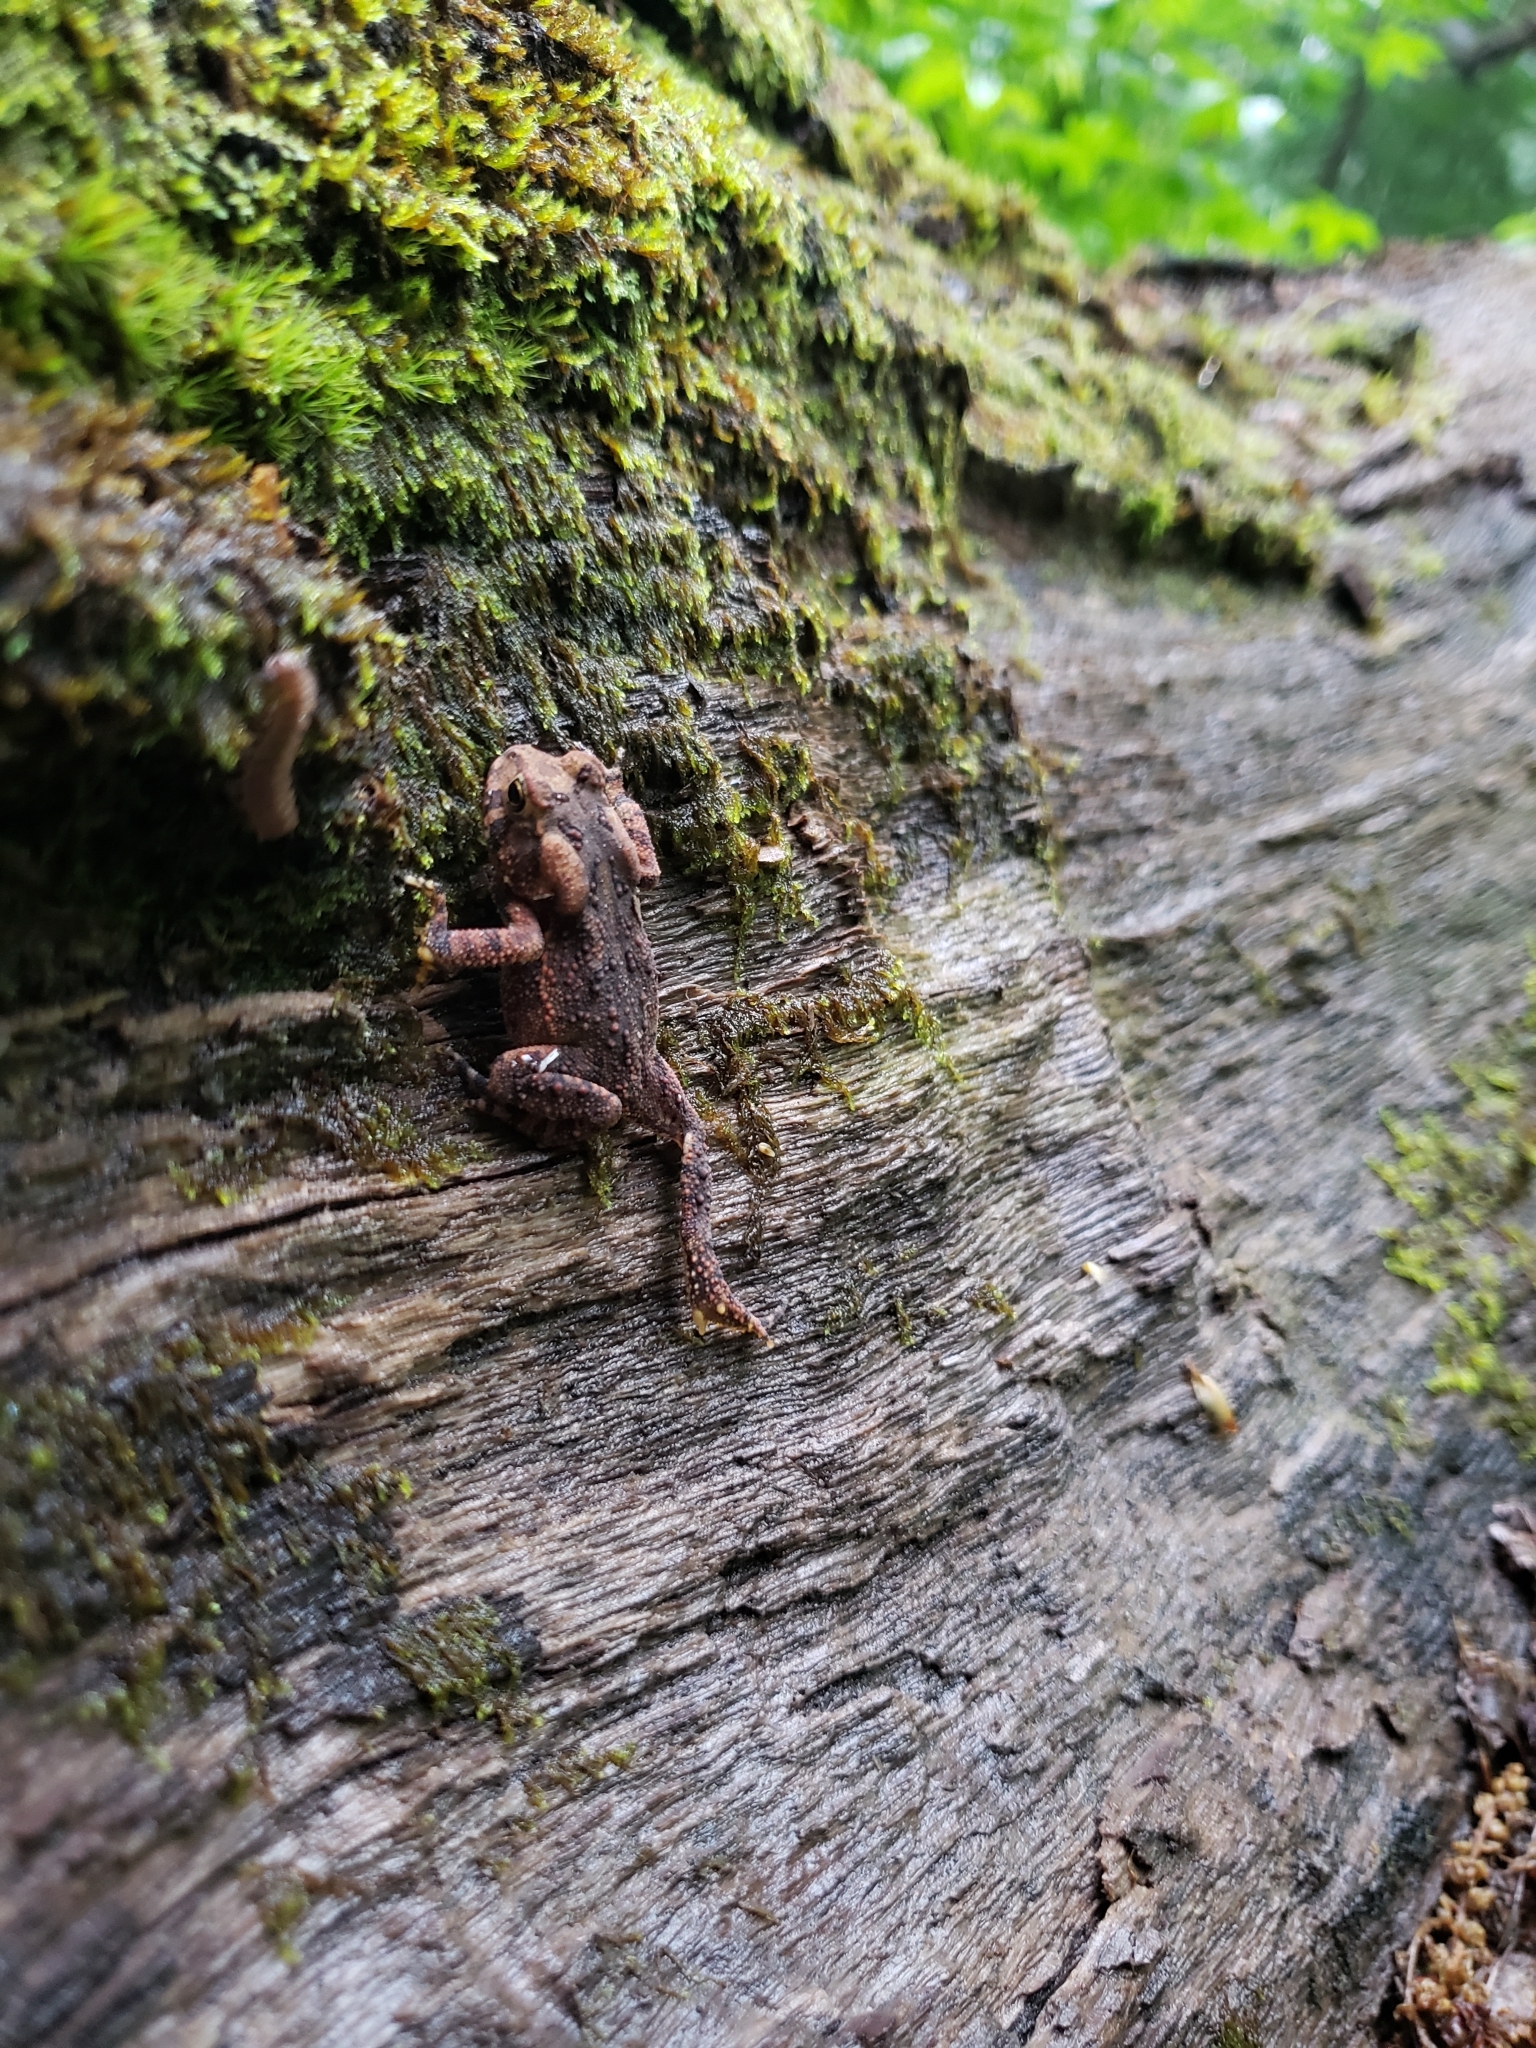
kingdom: Animalia
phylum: Chordata
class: Amphibia
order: Anura
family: Bufonidae
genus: Anaxyrus
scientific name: Anaxyrus americanus
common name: American toad
